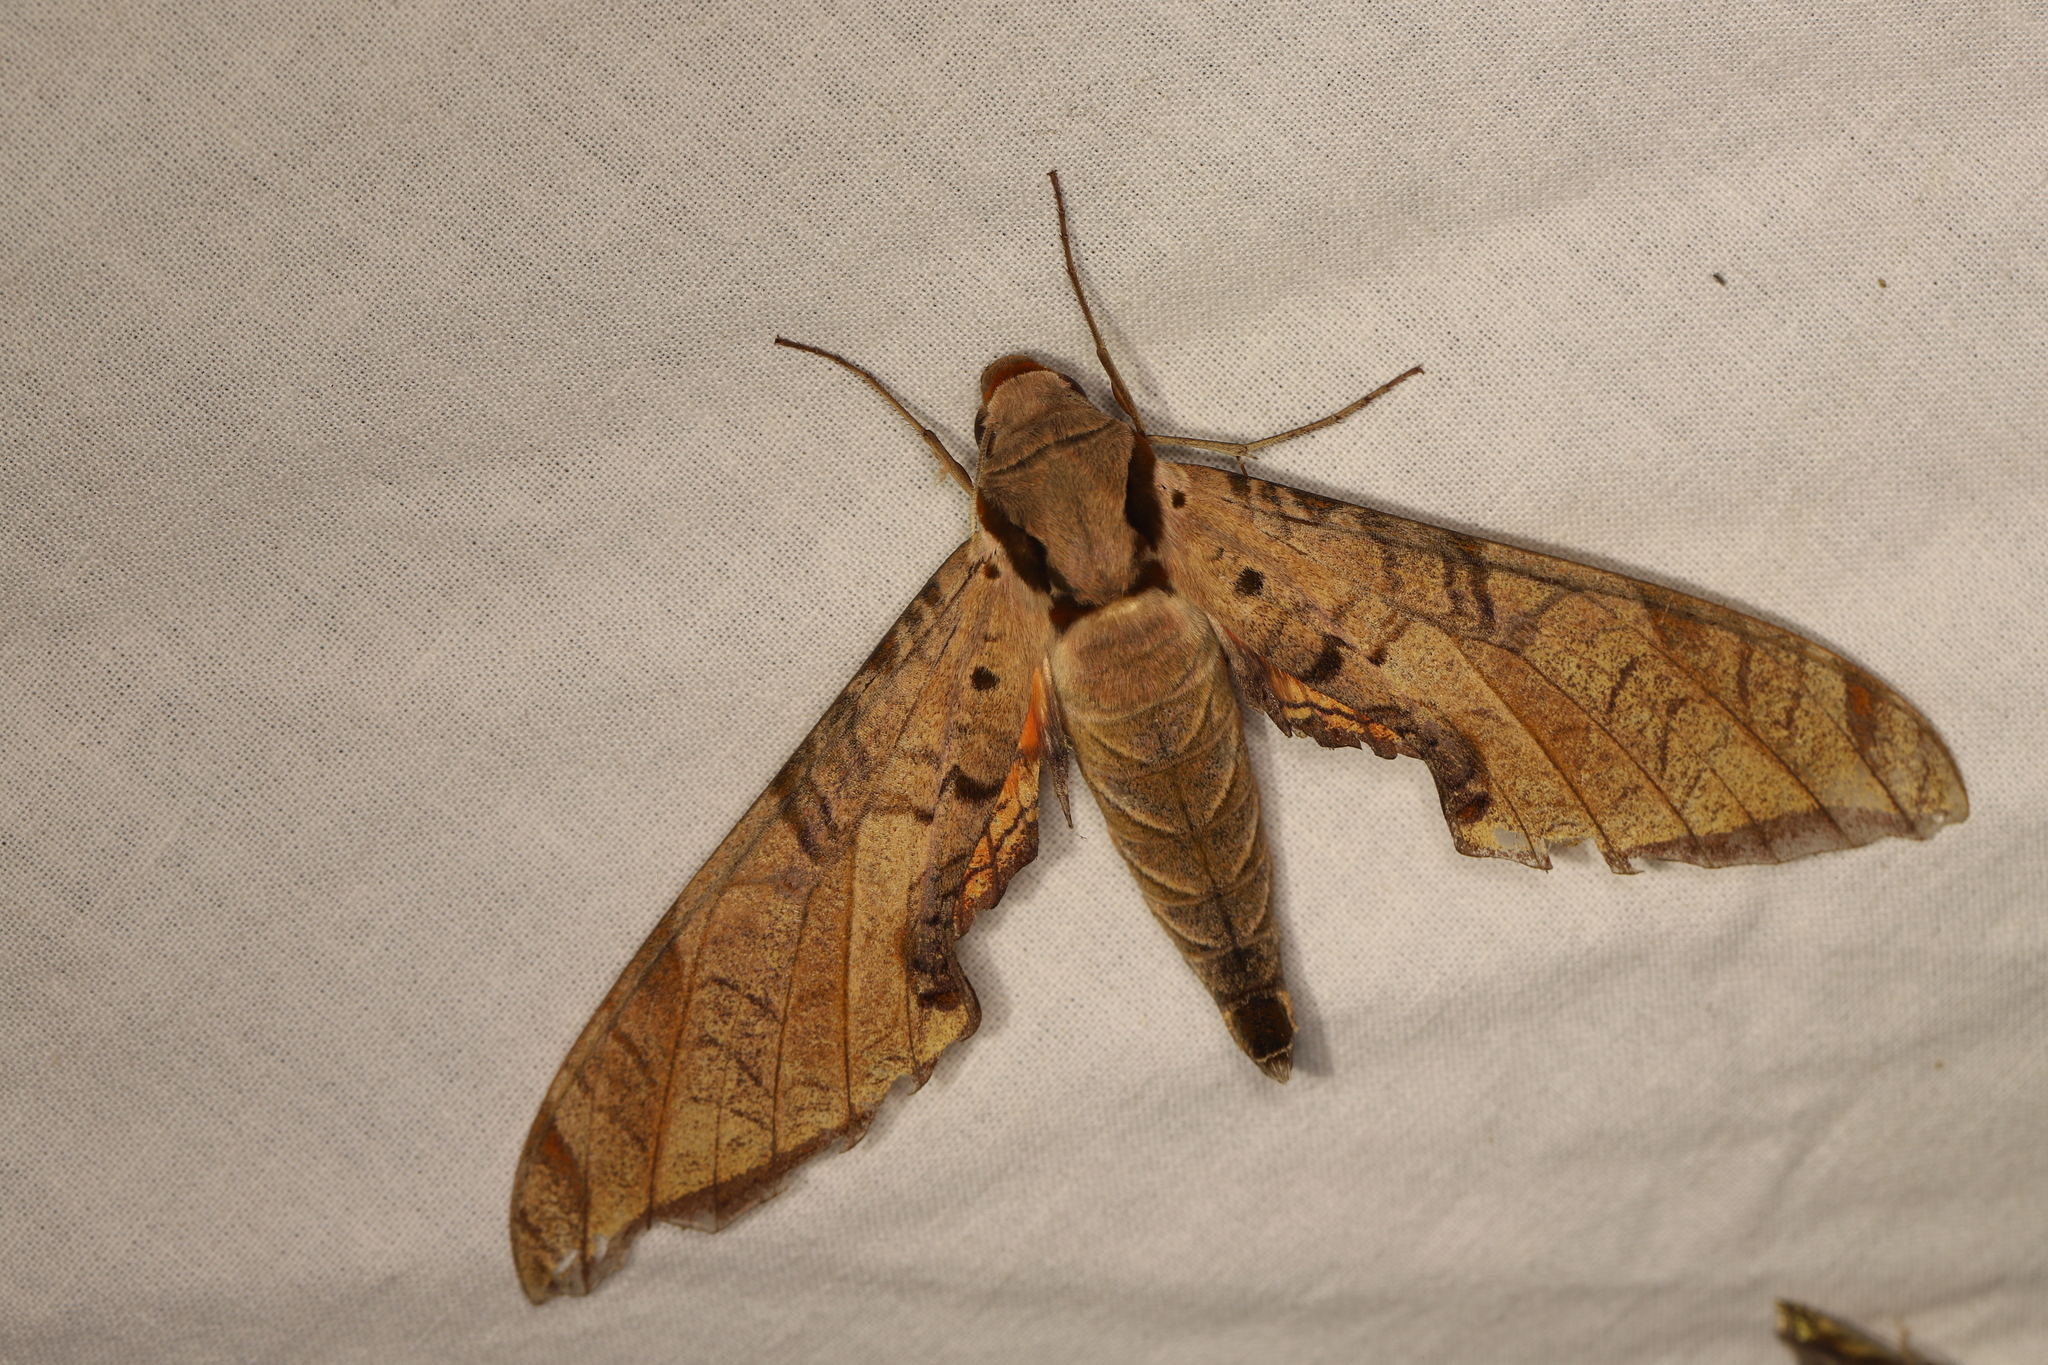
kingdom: Animalia
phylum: Arthropoda
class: Insecta
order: Lepidoptera
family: Sphingidae
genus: Protambulyx
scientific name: Protambulyx strigilis
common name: Streaked sphinx
